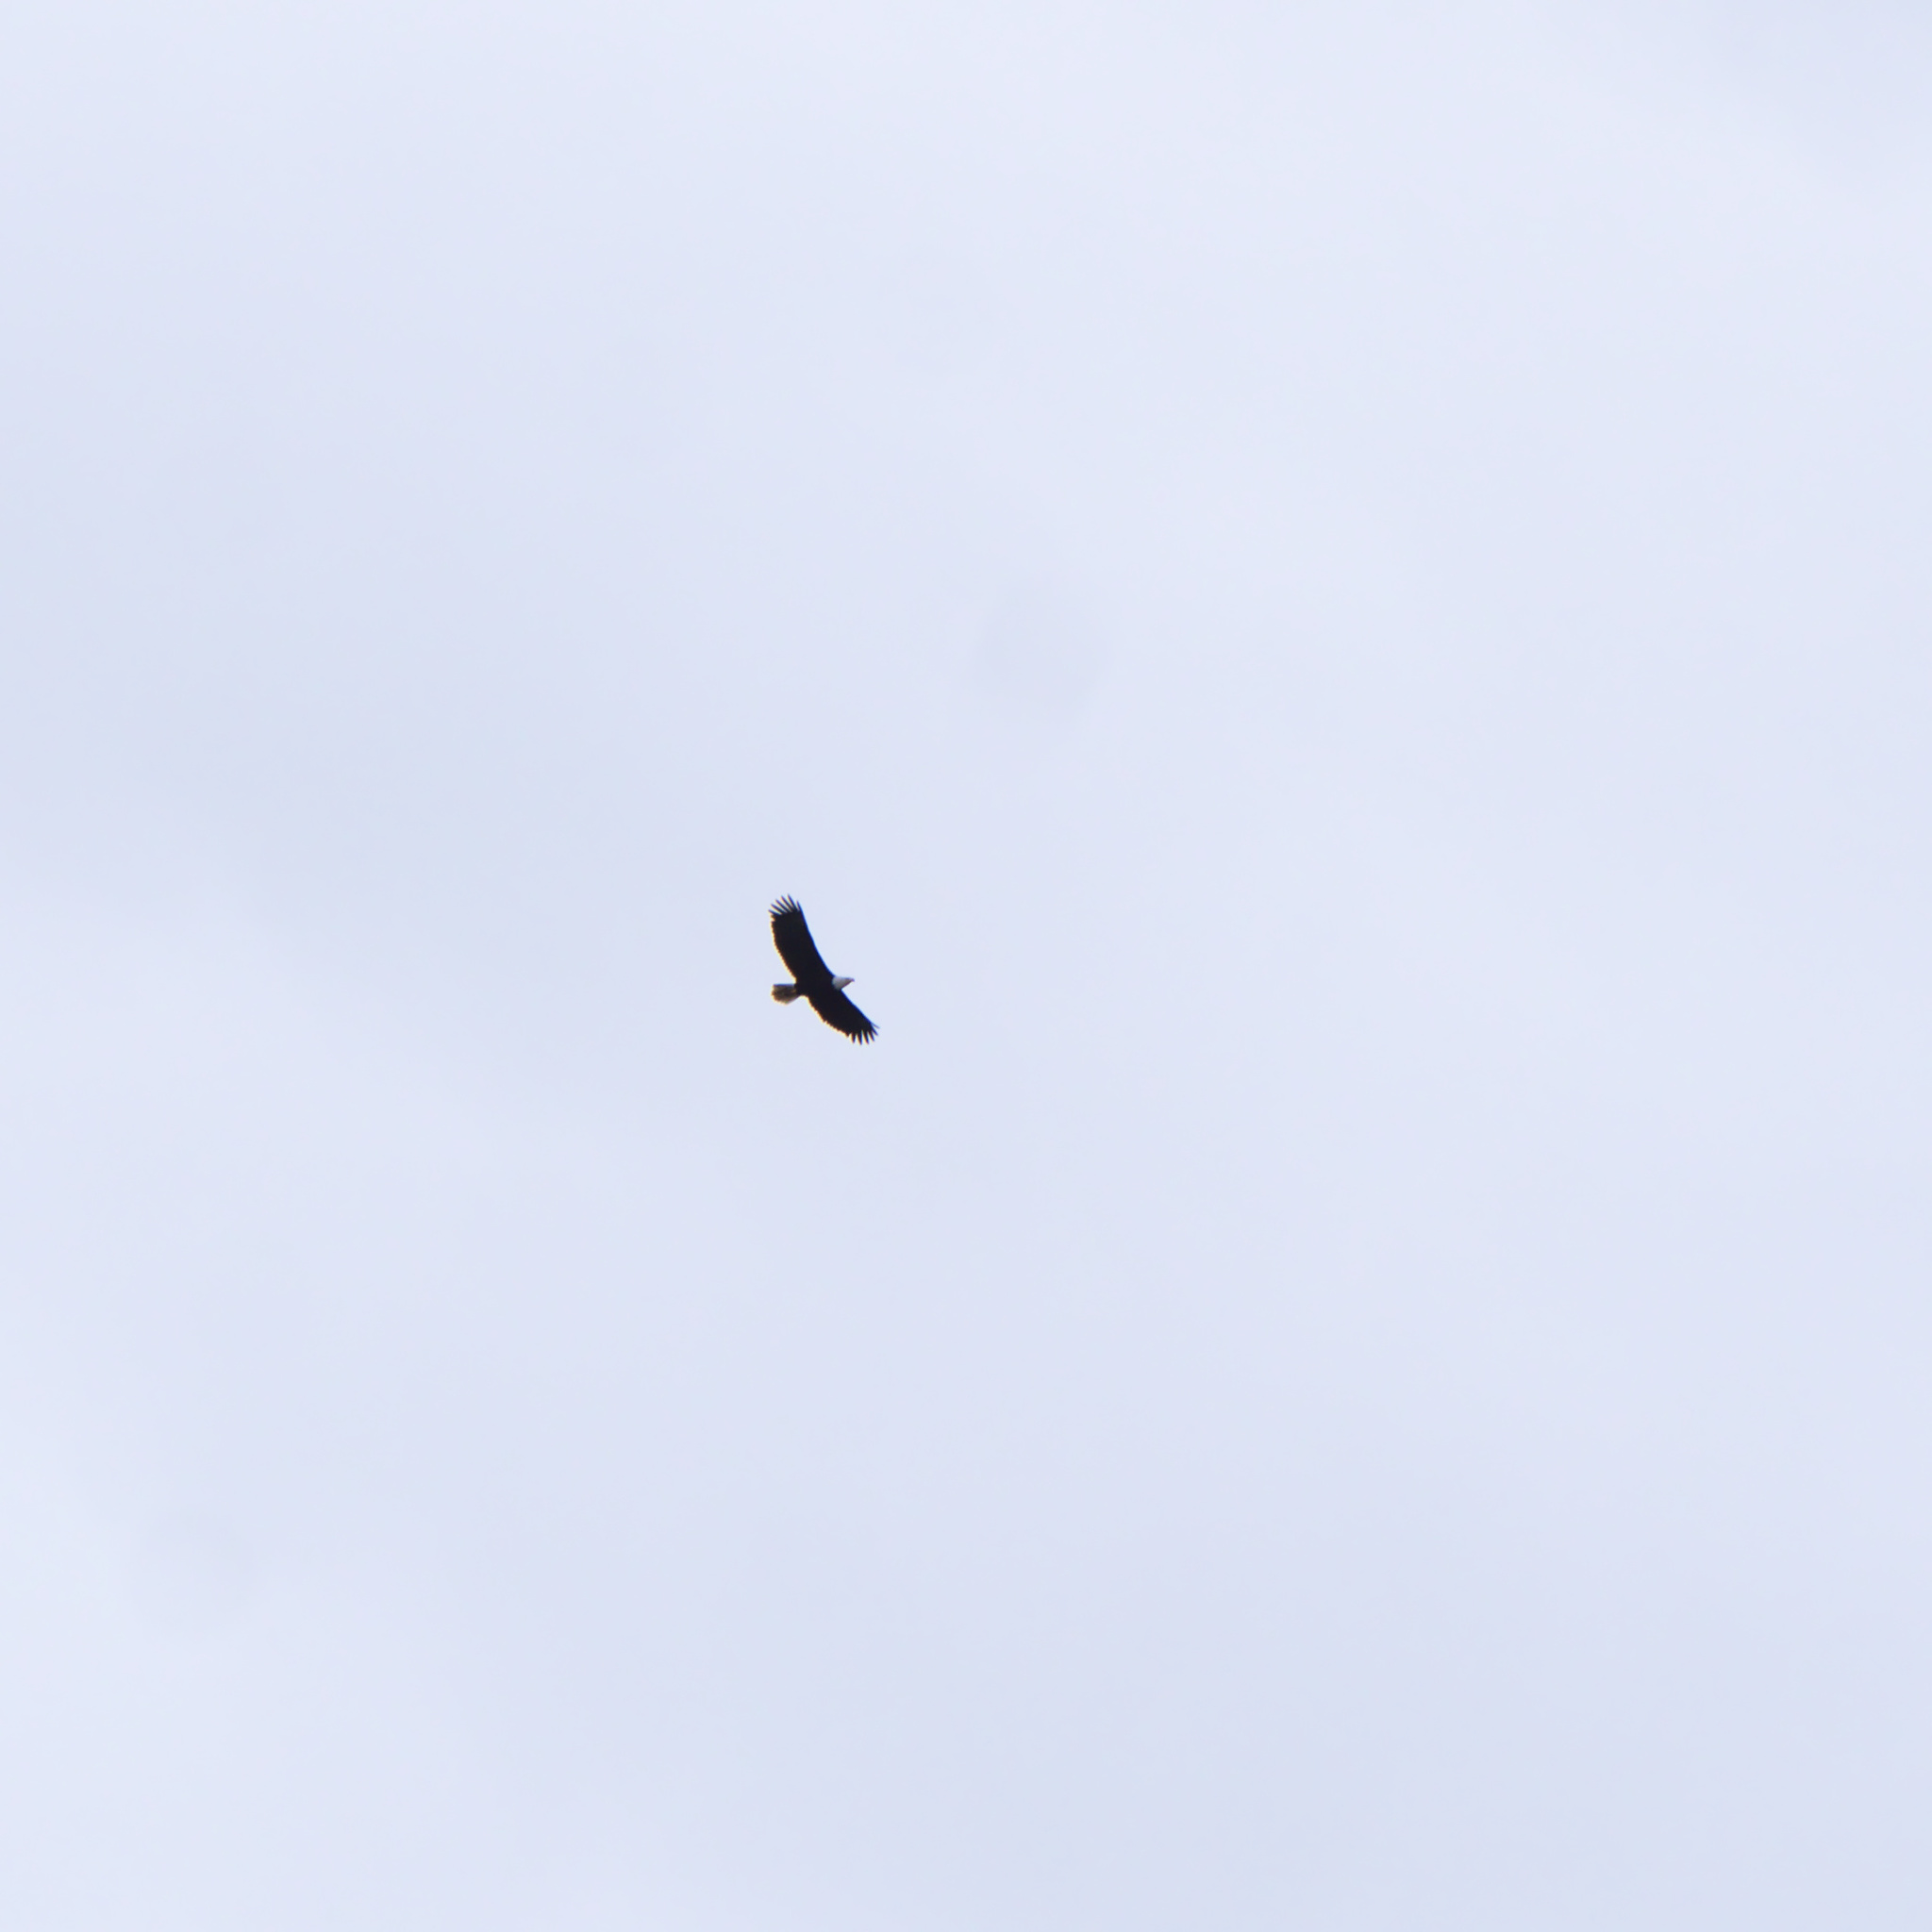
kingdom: Animalia
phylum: Chordata
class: Aves
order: Accipitriformes
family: Accipitridae
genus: Haliaeetus
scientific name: Haliaeetus leucocephalus
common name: Bald eagle
